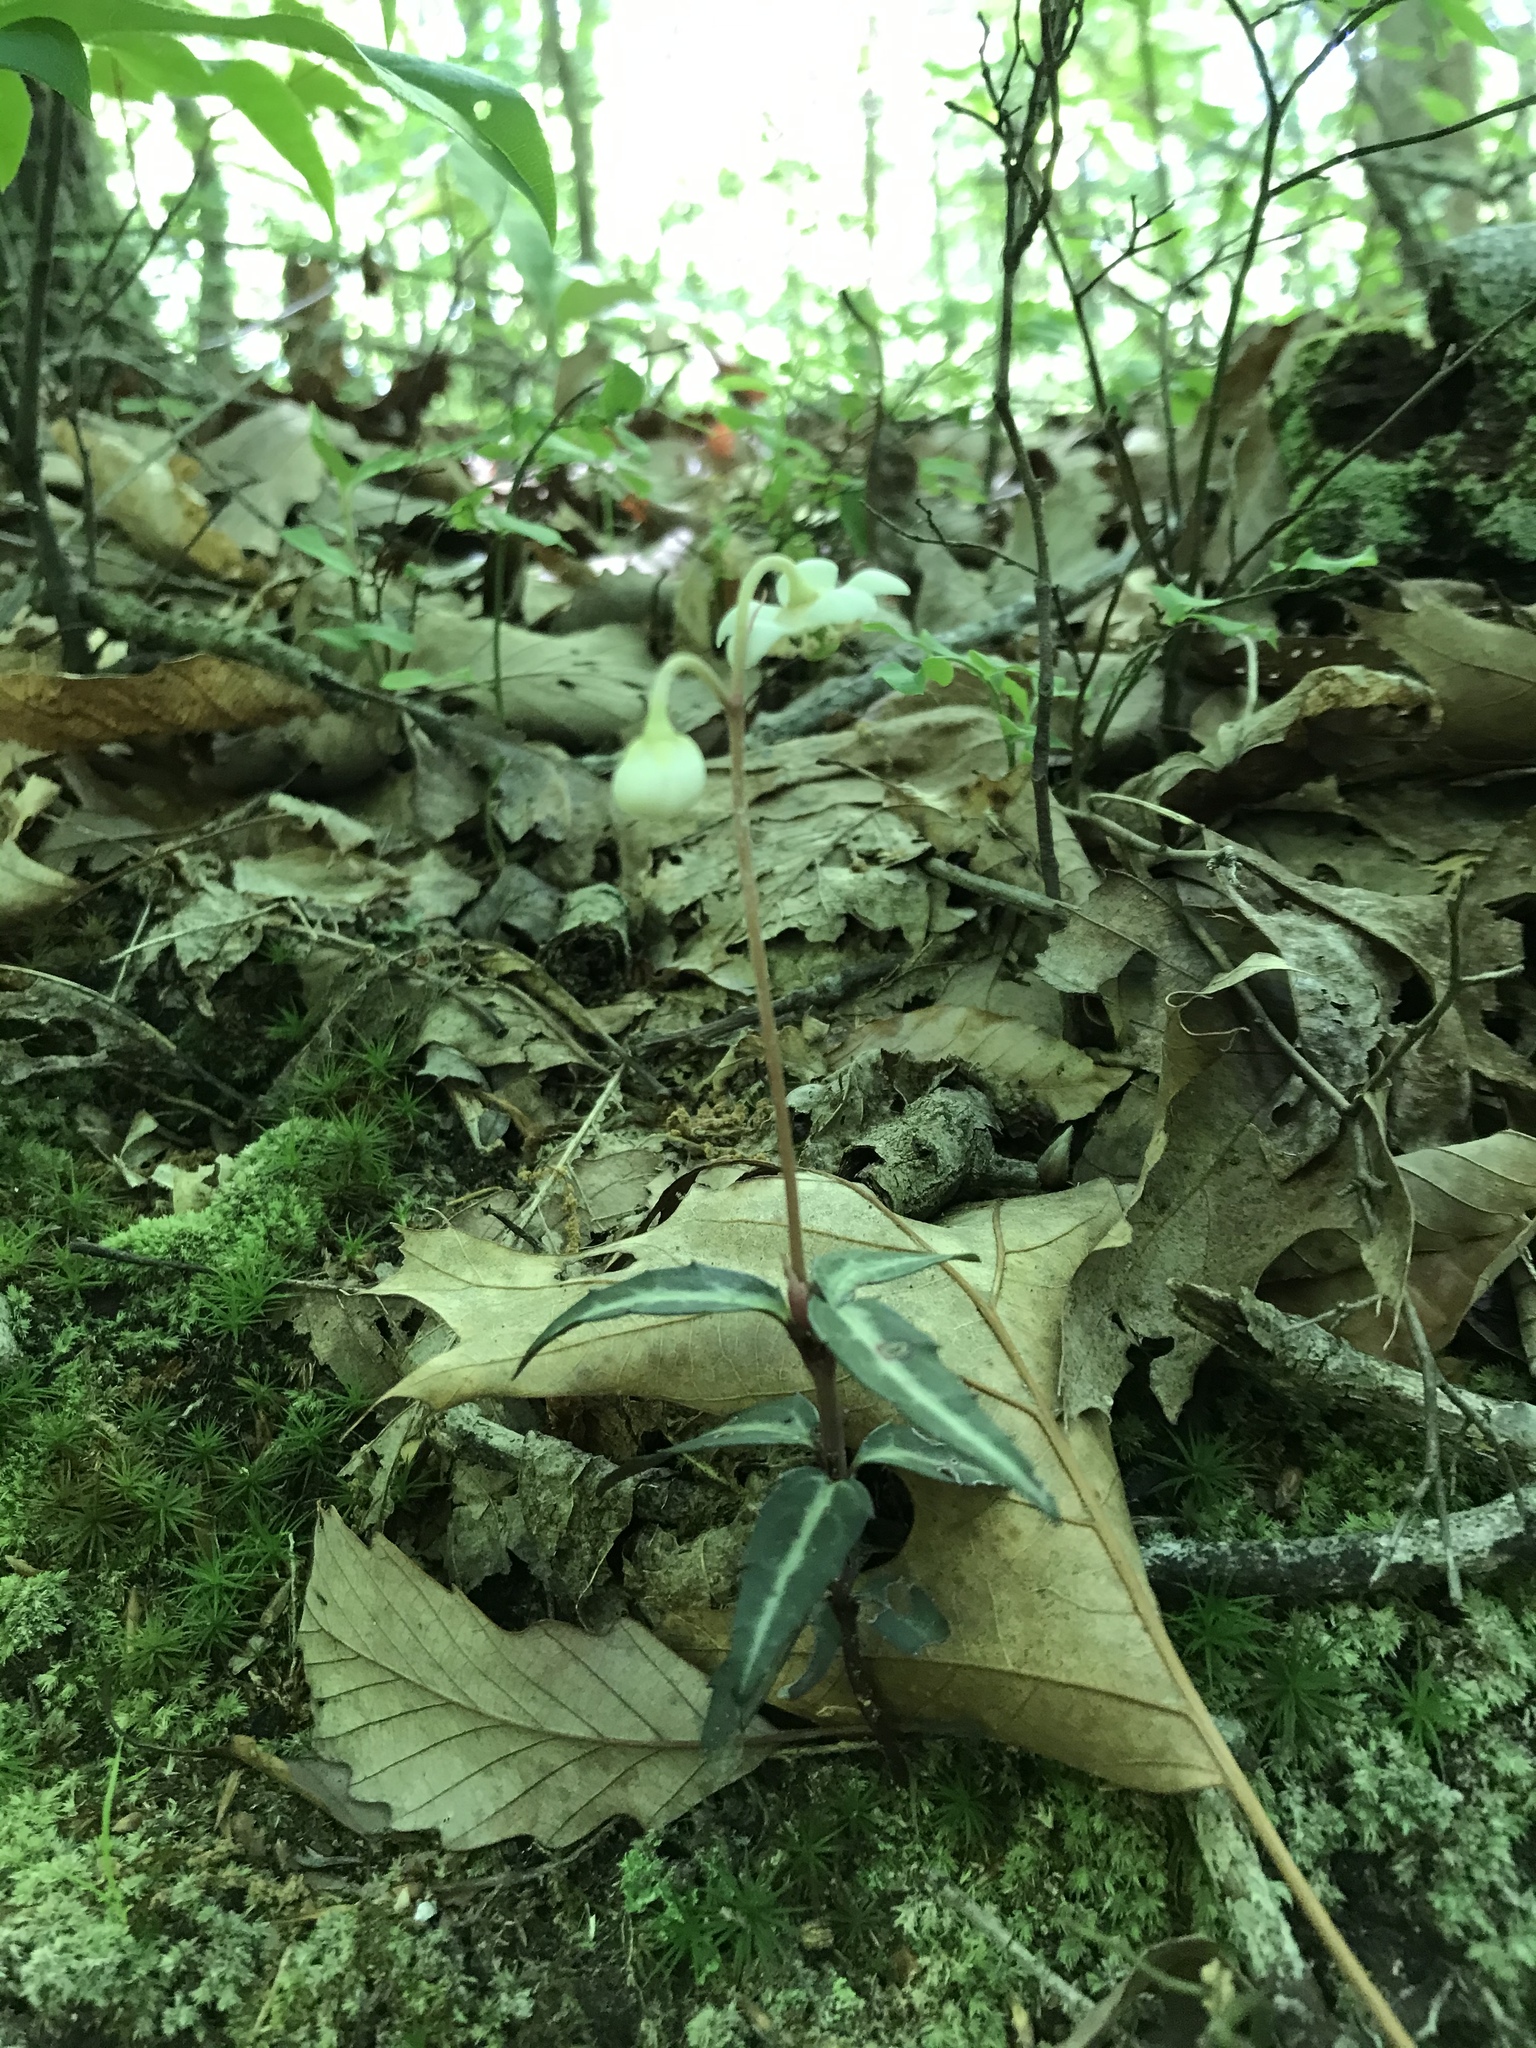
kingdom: Plantae
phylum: Tracheophyta
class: Magnoliopsida
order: Ericales
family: Ericaceae
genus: Chimaphila
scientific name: Chimaphila maculata
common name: Spotted pipsissewa
